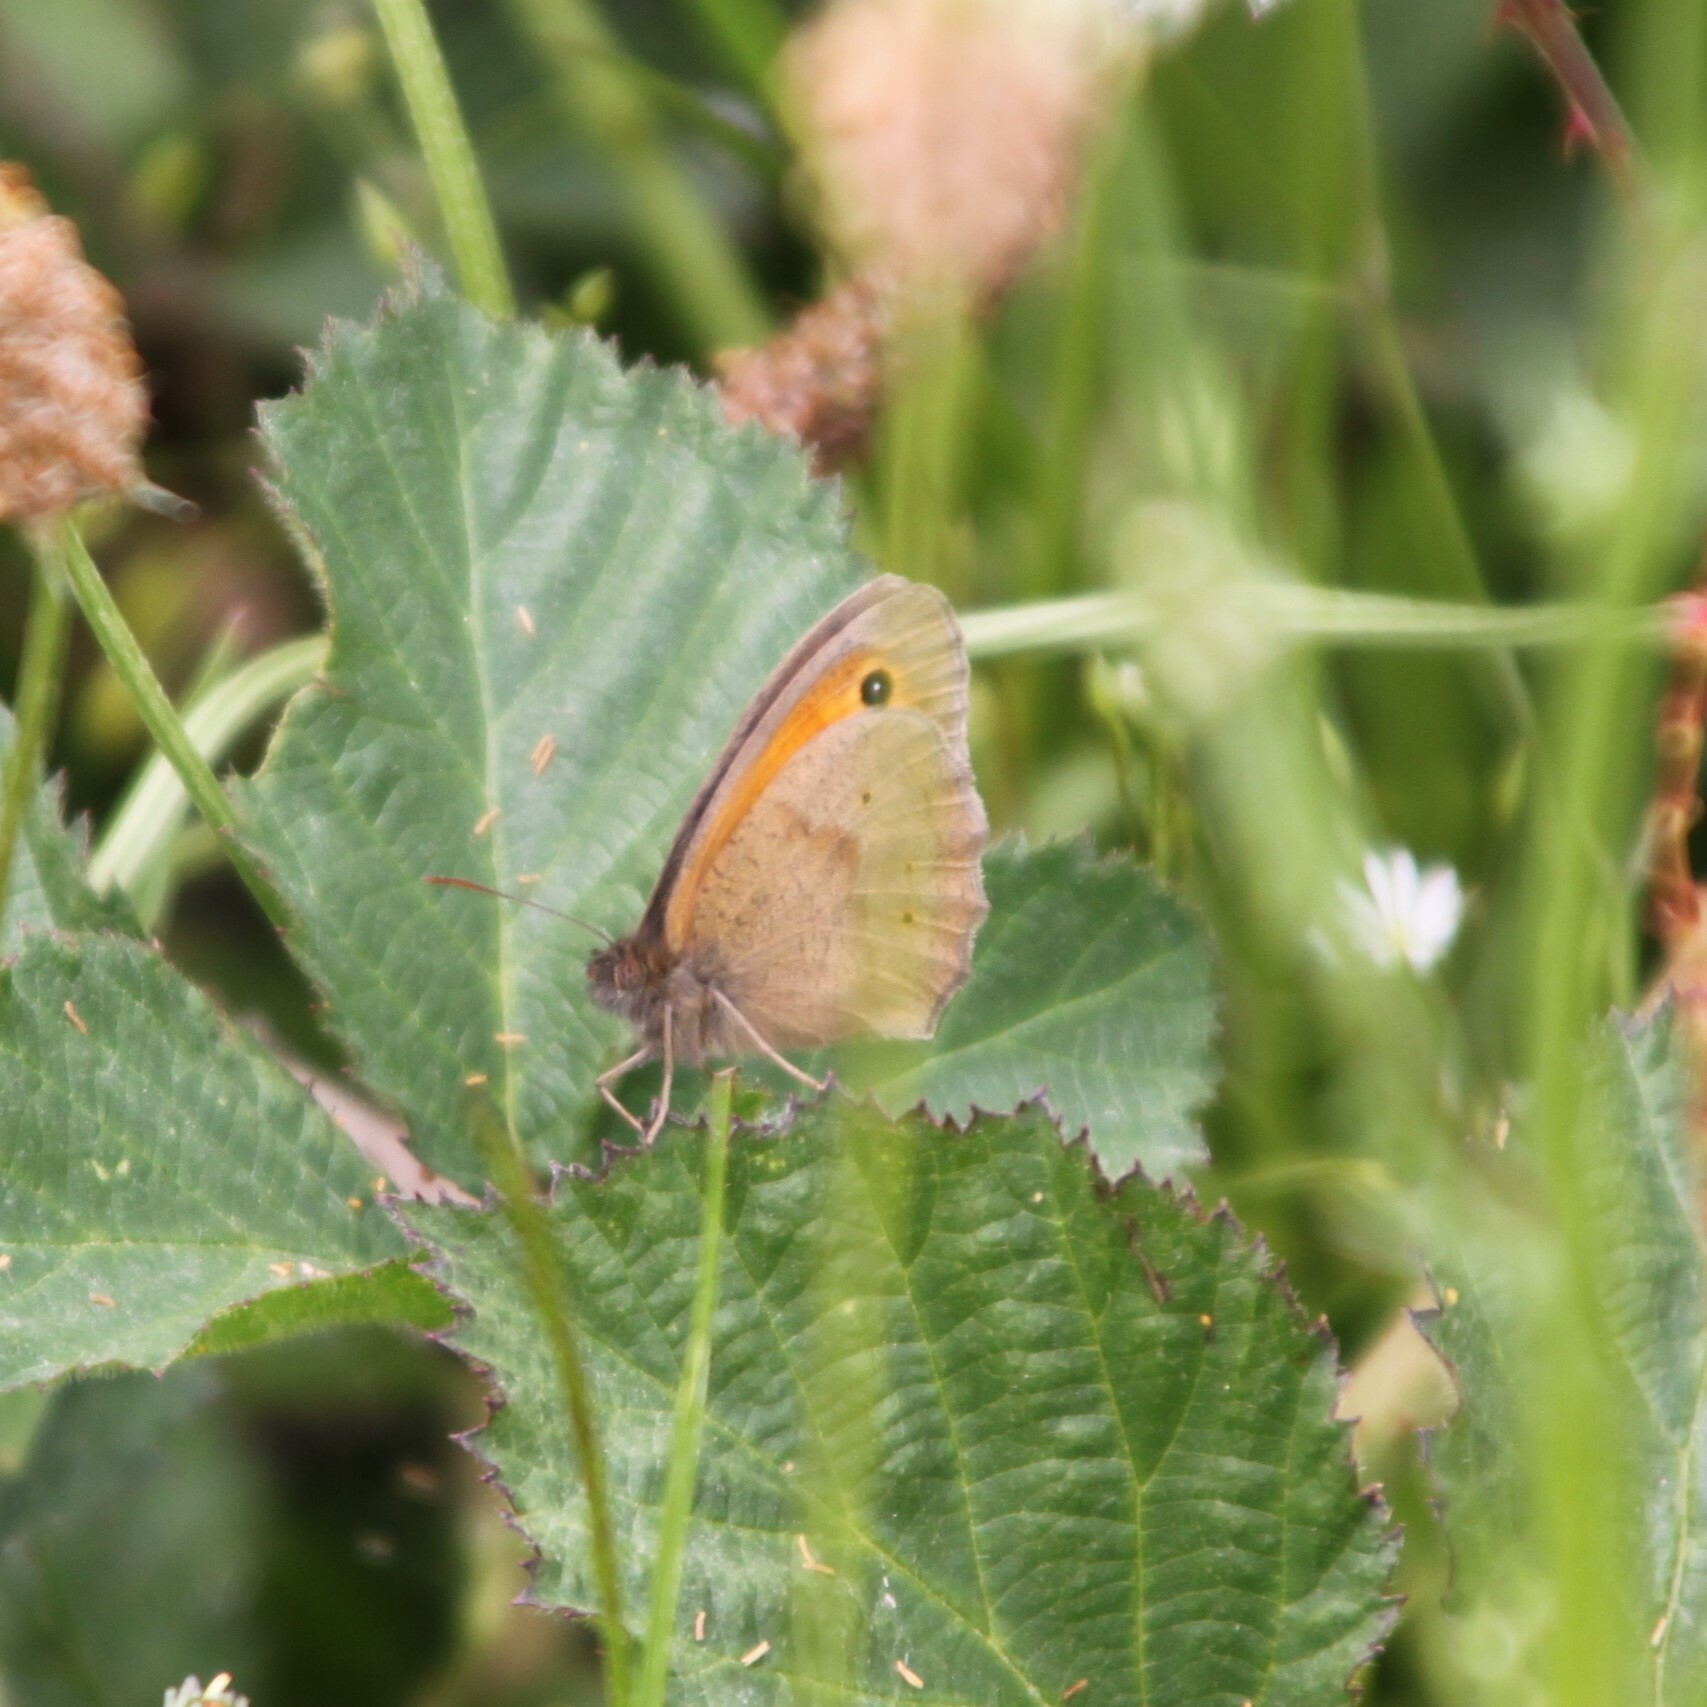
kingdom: Animalia
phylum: Arthropoda
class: Insecta
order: Lepidoptera
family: Nymphalidae
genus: Maniola
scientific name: Maniola jurtina
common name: Meadow brown
